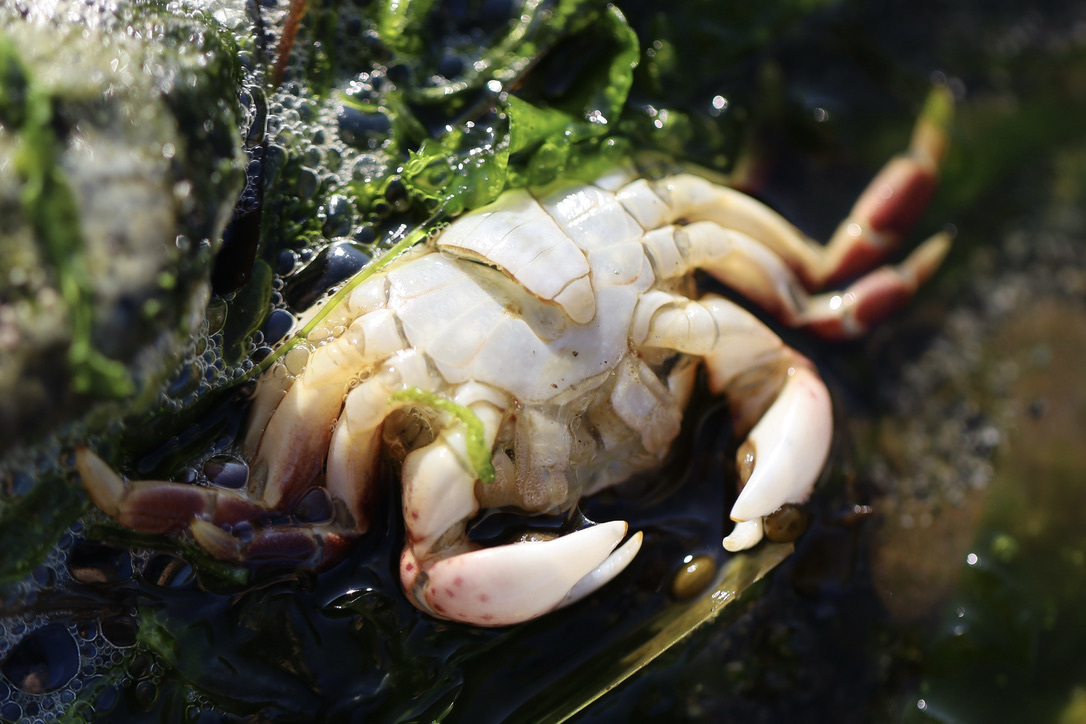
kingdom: Animalia
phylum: Arthropoda
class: Malacostraca
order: Decapoda
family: Varunidae
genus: Hemigrapsus
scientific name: Hemigrapsus nudus
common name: Purple shore crab
